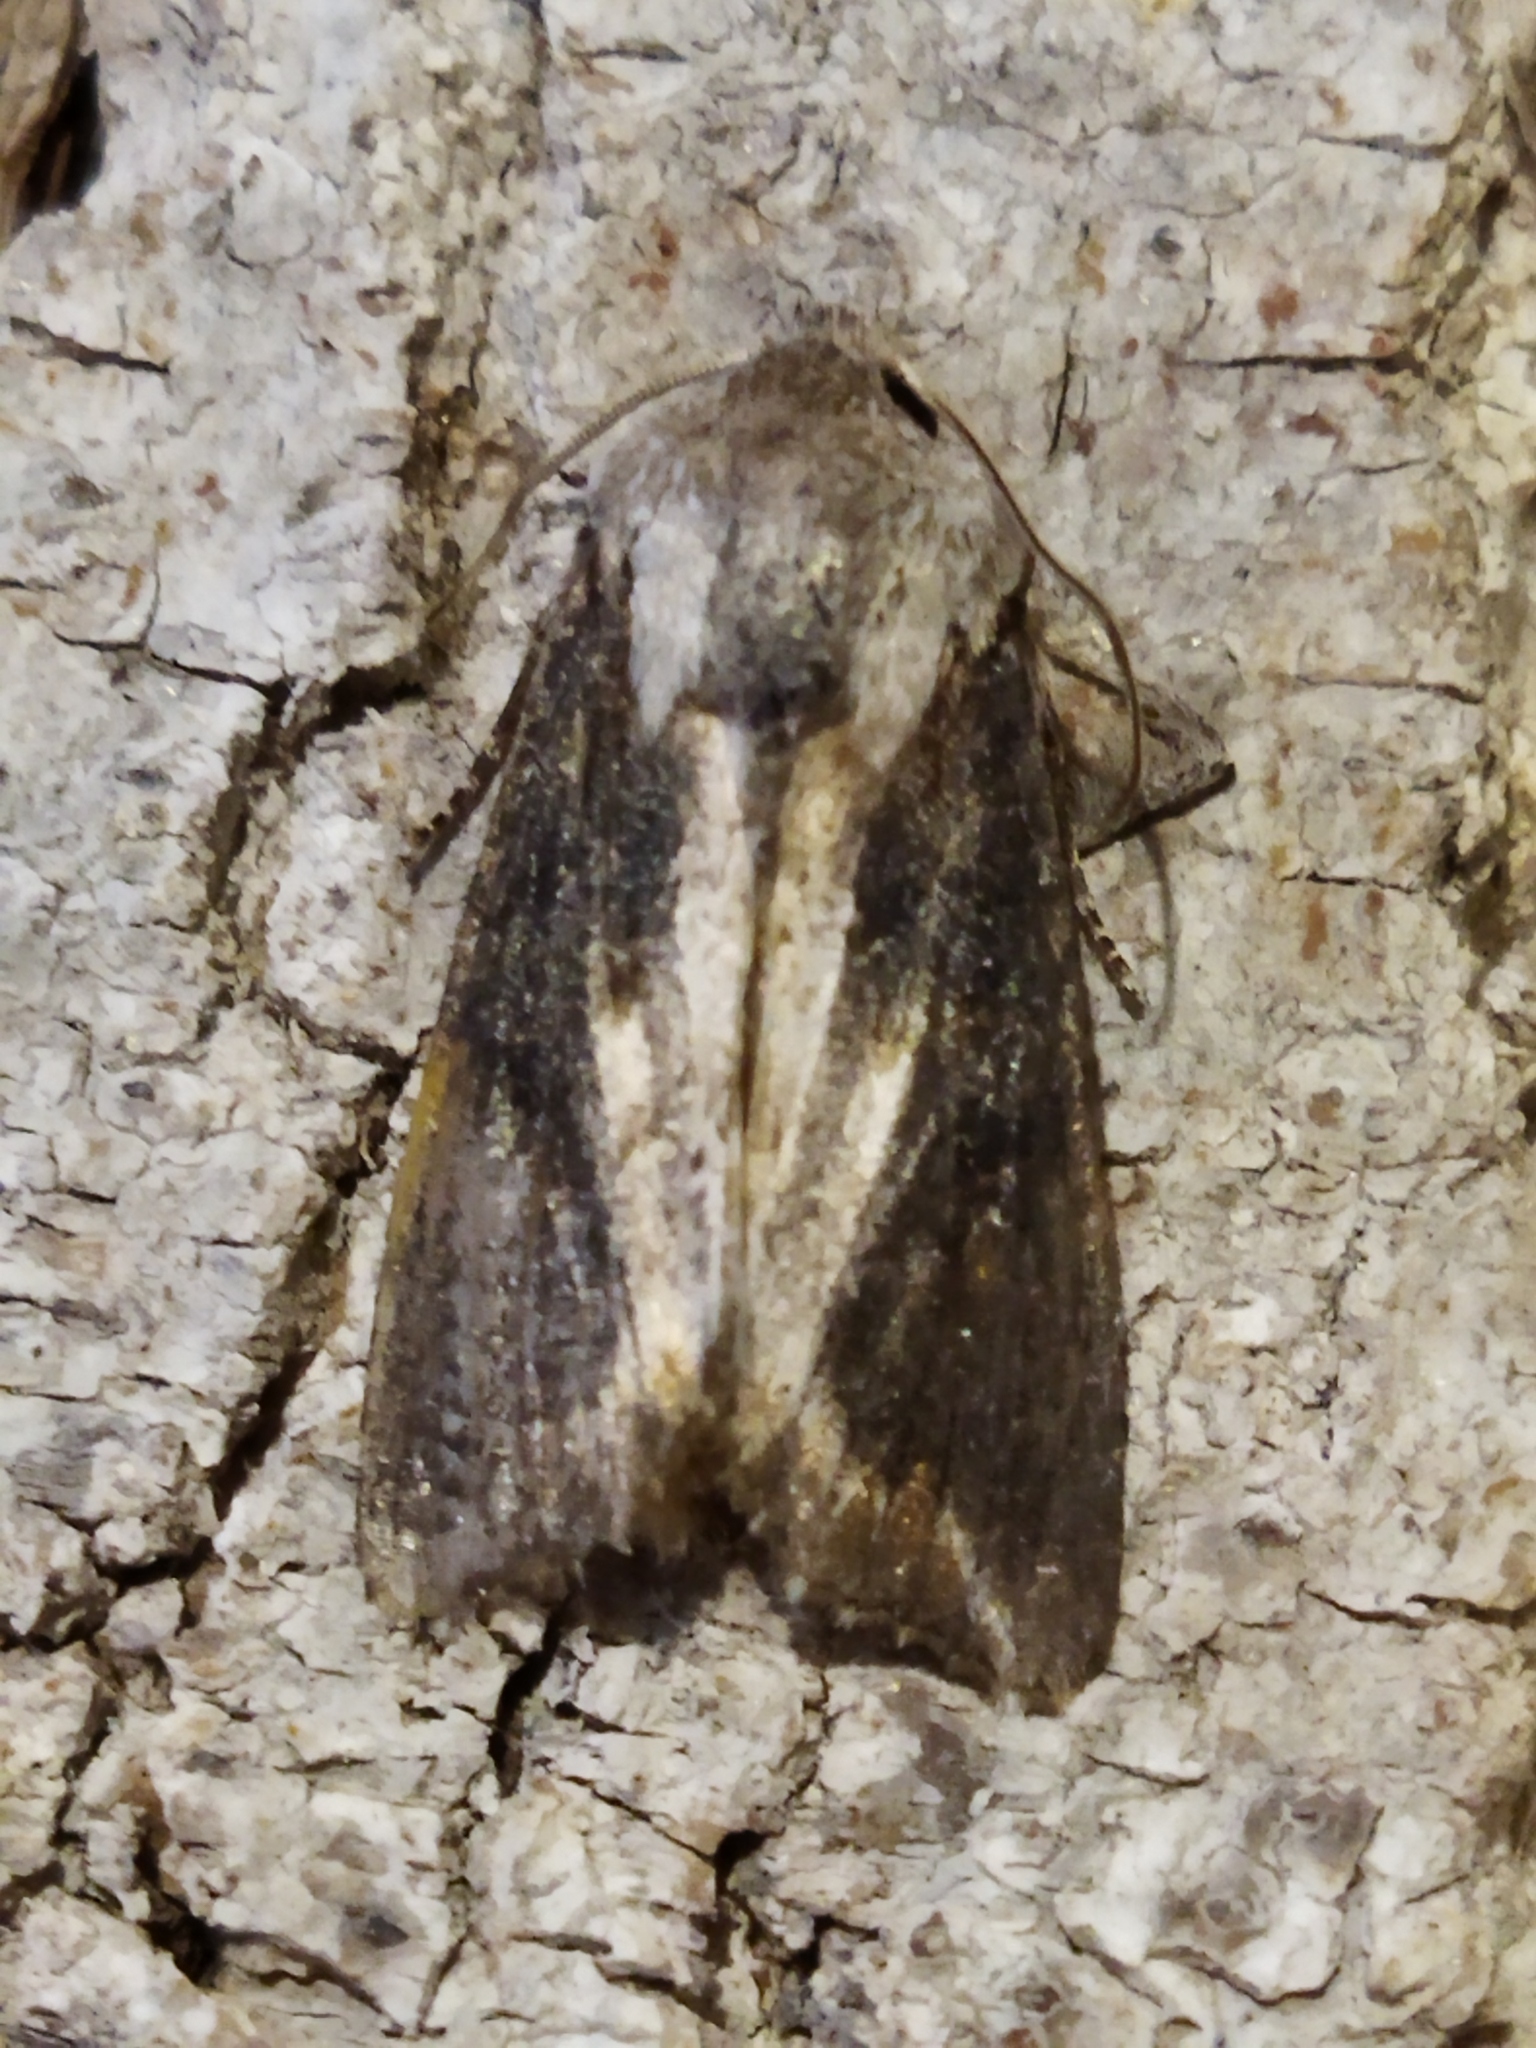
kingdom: Animalia
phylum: Arthropoda
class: Insecta
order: Lepidoptera
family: Noctuidae
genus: Egira
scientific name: Egira conspicillaris
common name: Silver cloud
